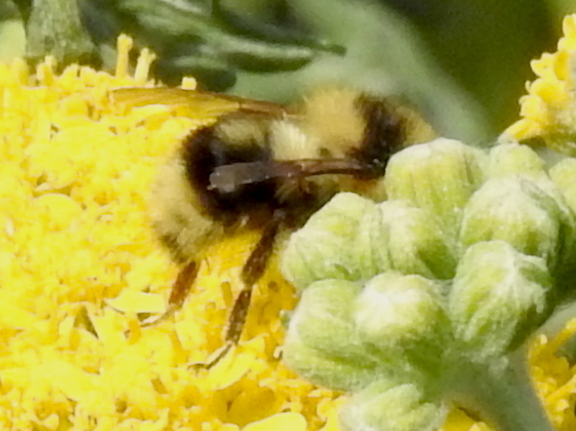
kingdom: Animalia
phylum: Arthropoda
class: Insecta
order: Hymenoptera
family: Apidae
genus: Bombus
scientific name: Bombus melanopygus
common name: Black tail bumble bee
